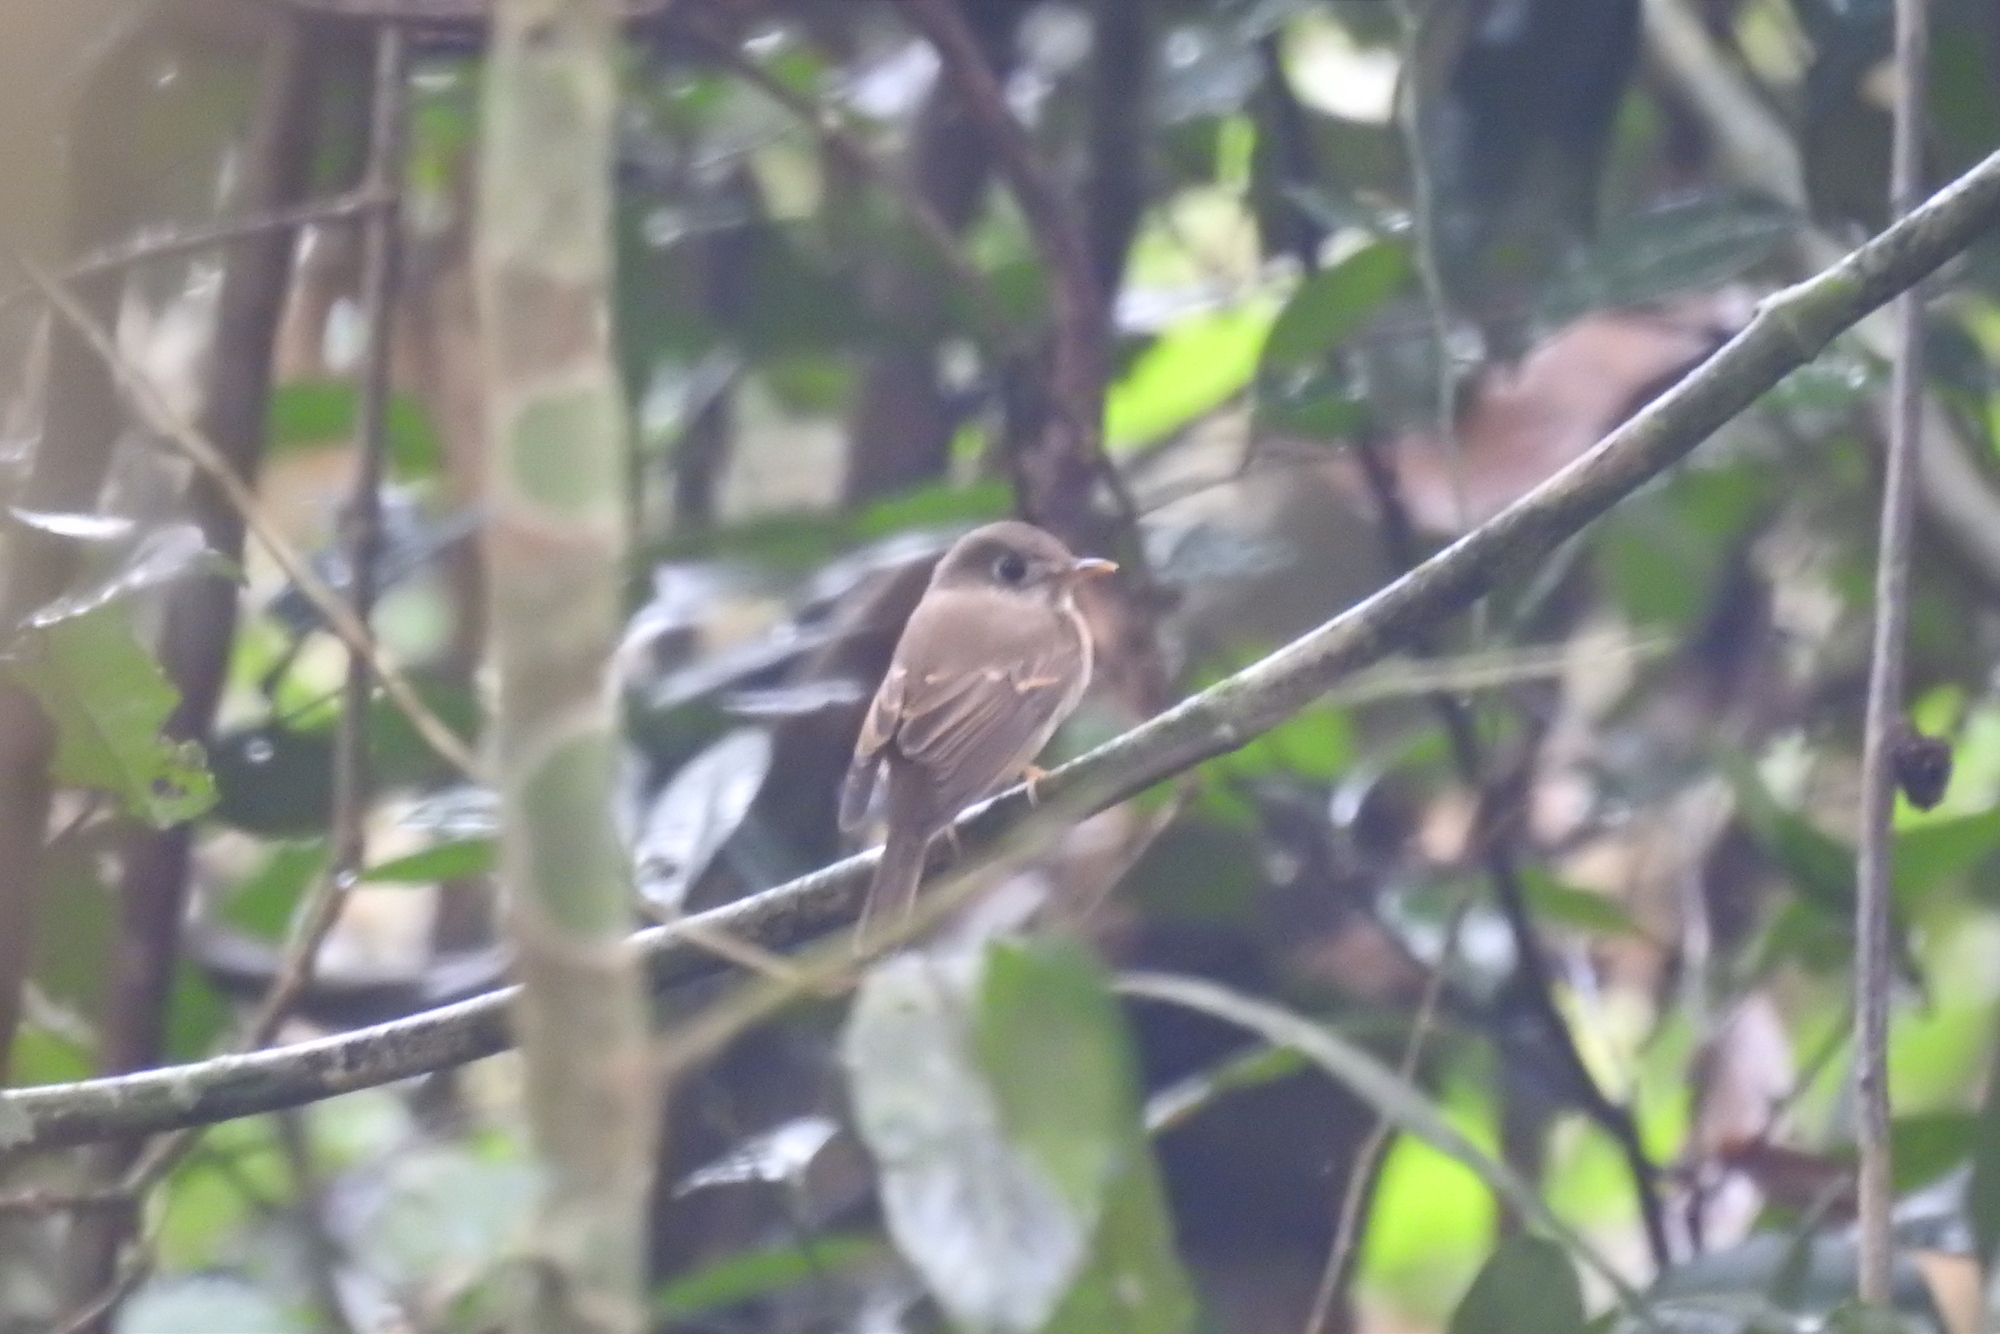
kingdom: Animalia
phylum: Chordata
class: Aves
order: Passeriformes
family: Muscicapidae
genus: Muscicapa
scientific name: Muscicapa muttui
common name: Brown-breasted flycatcher
